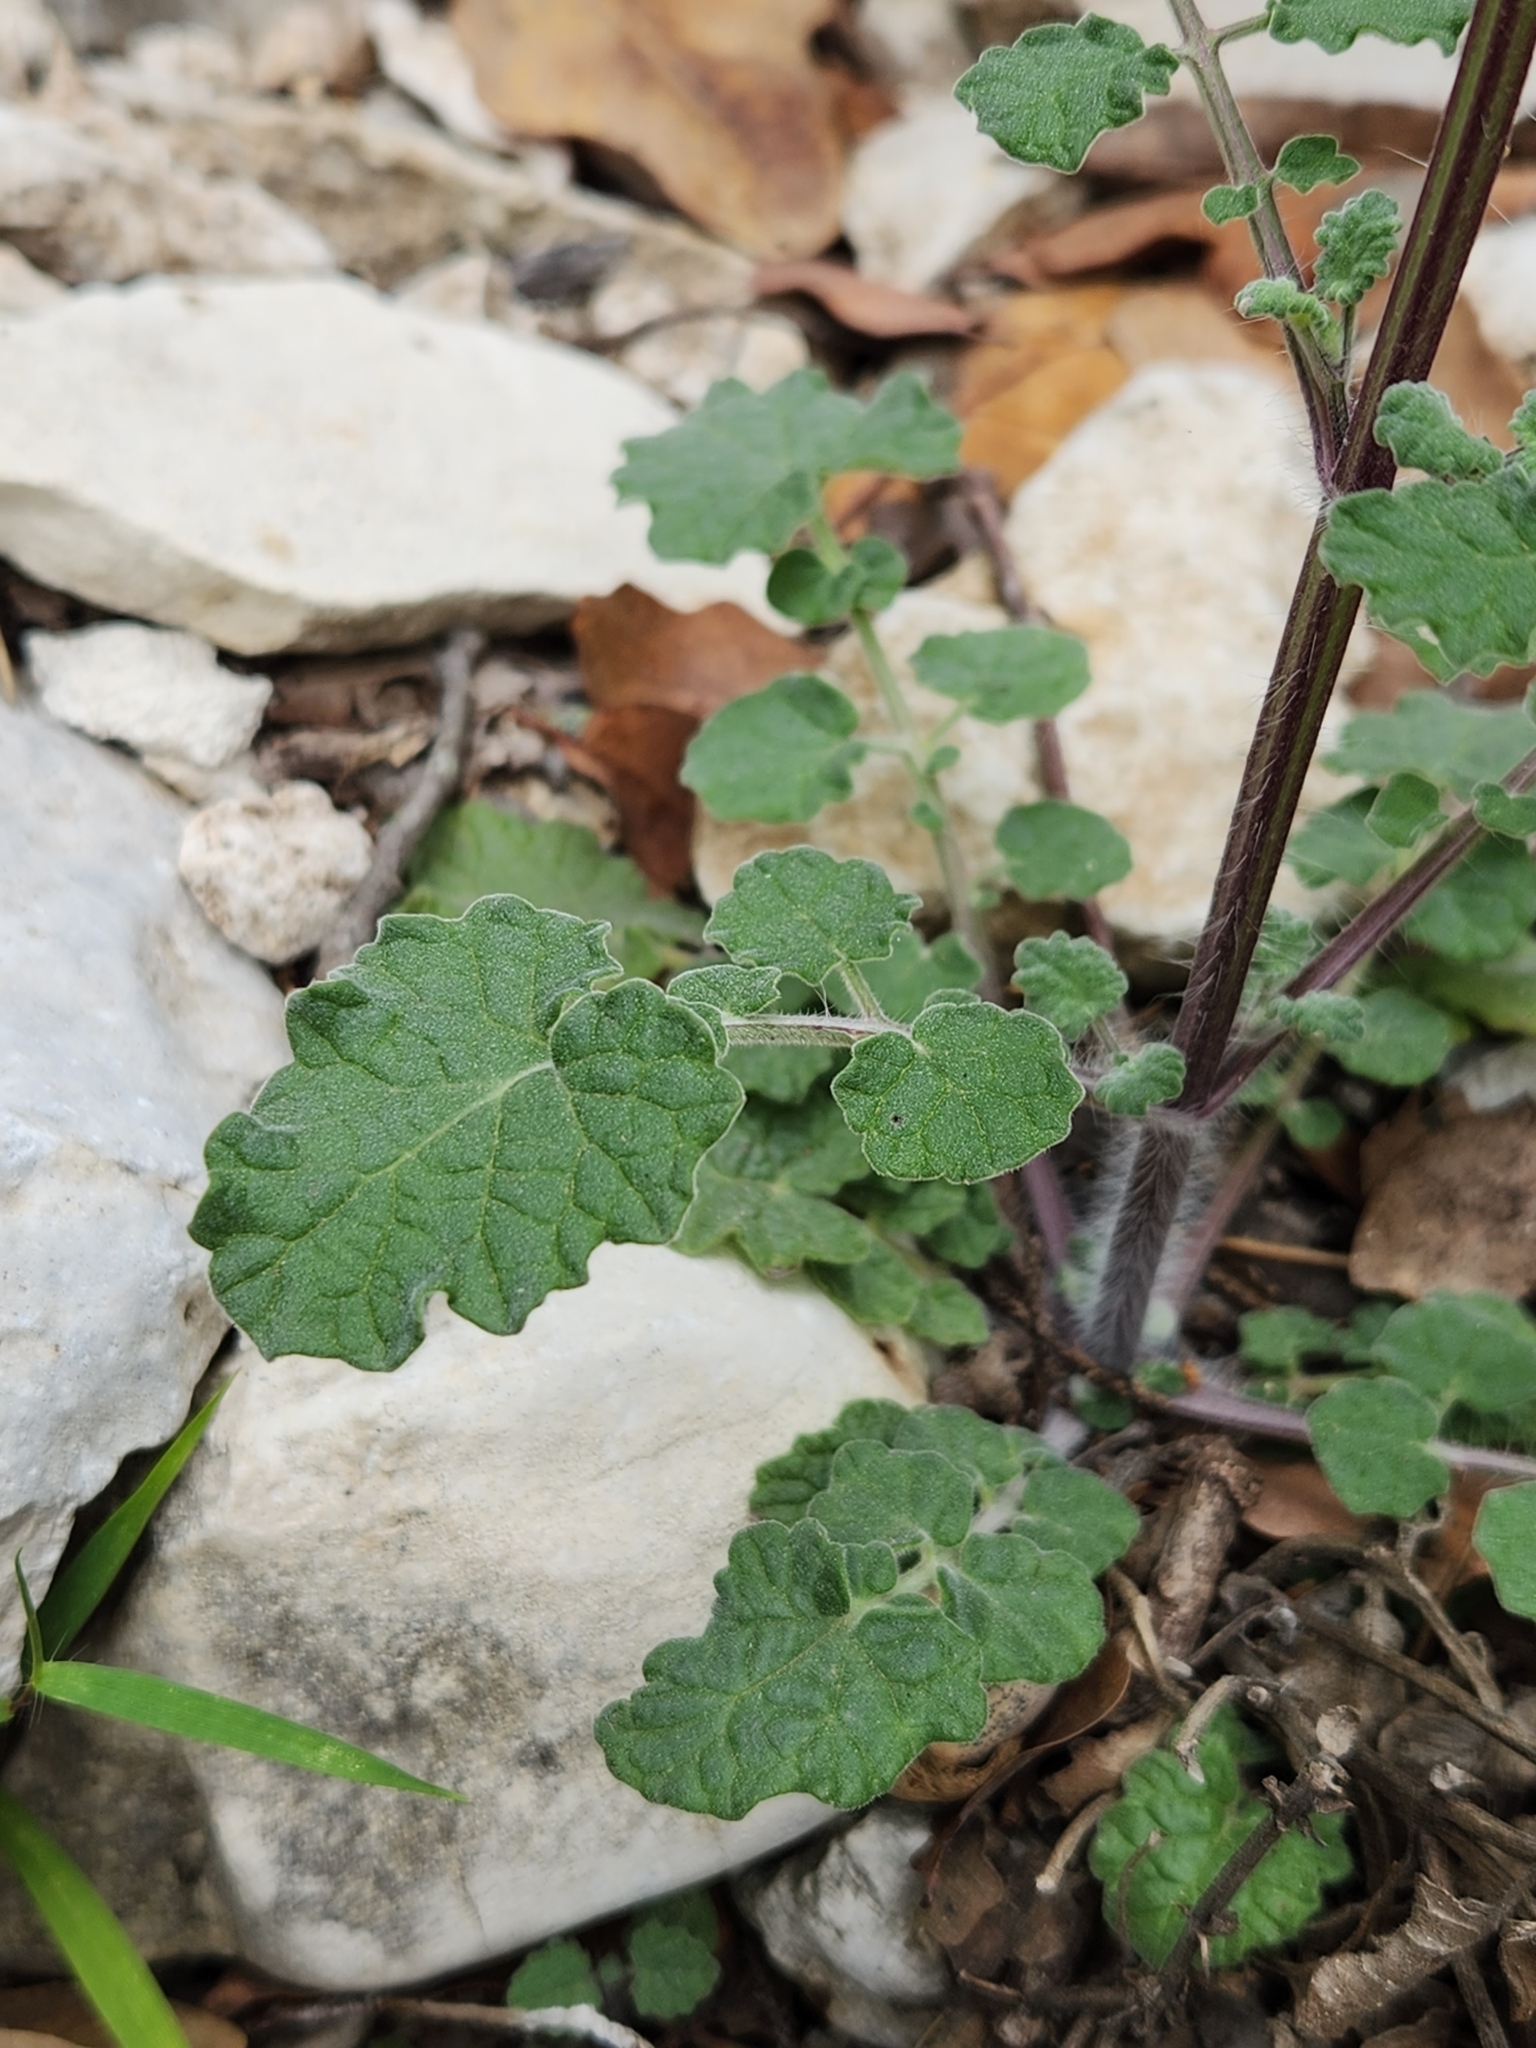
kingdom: Plantae
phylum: Tracheophyta
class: Magnoliopsida
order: Lamiales
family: Lamiaceae
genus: Salvia
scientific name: Salvia roemeriana
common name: Cedar sage
